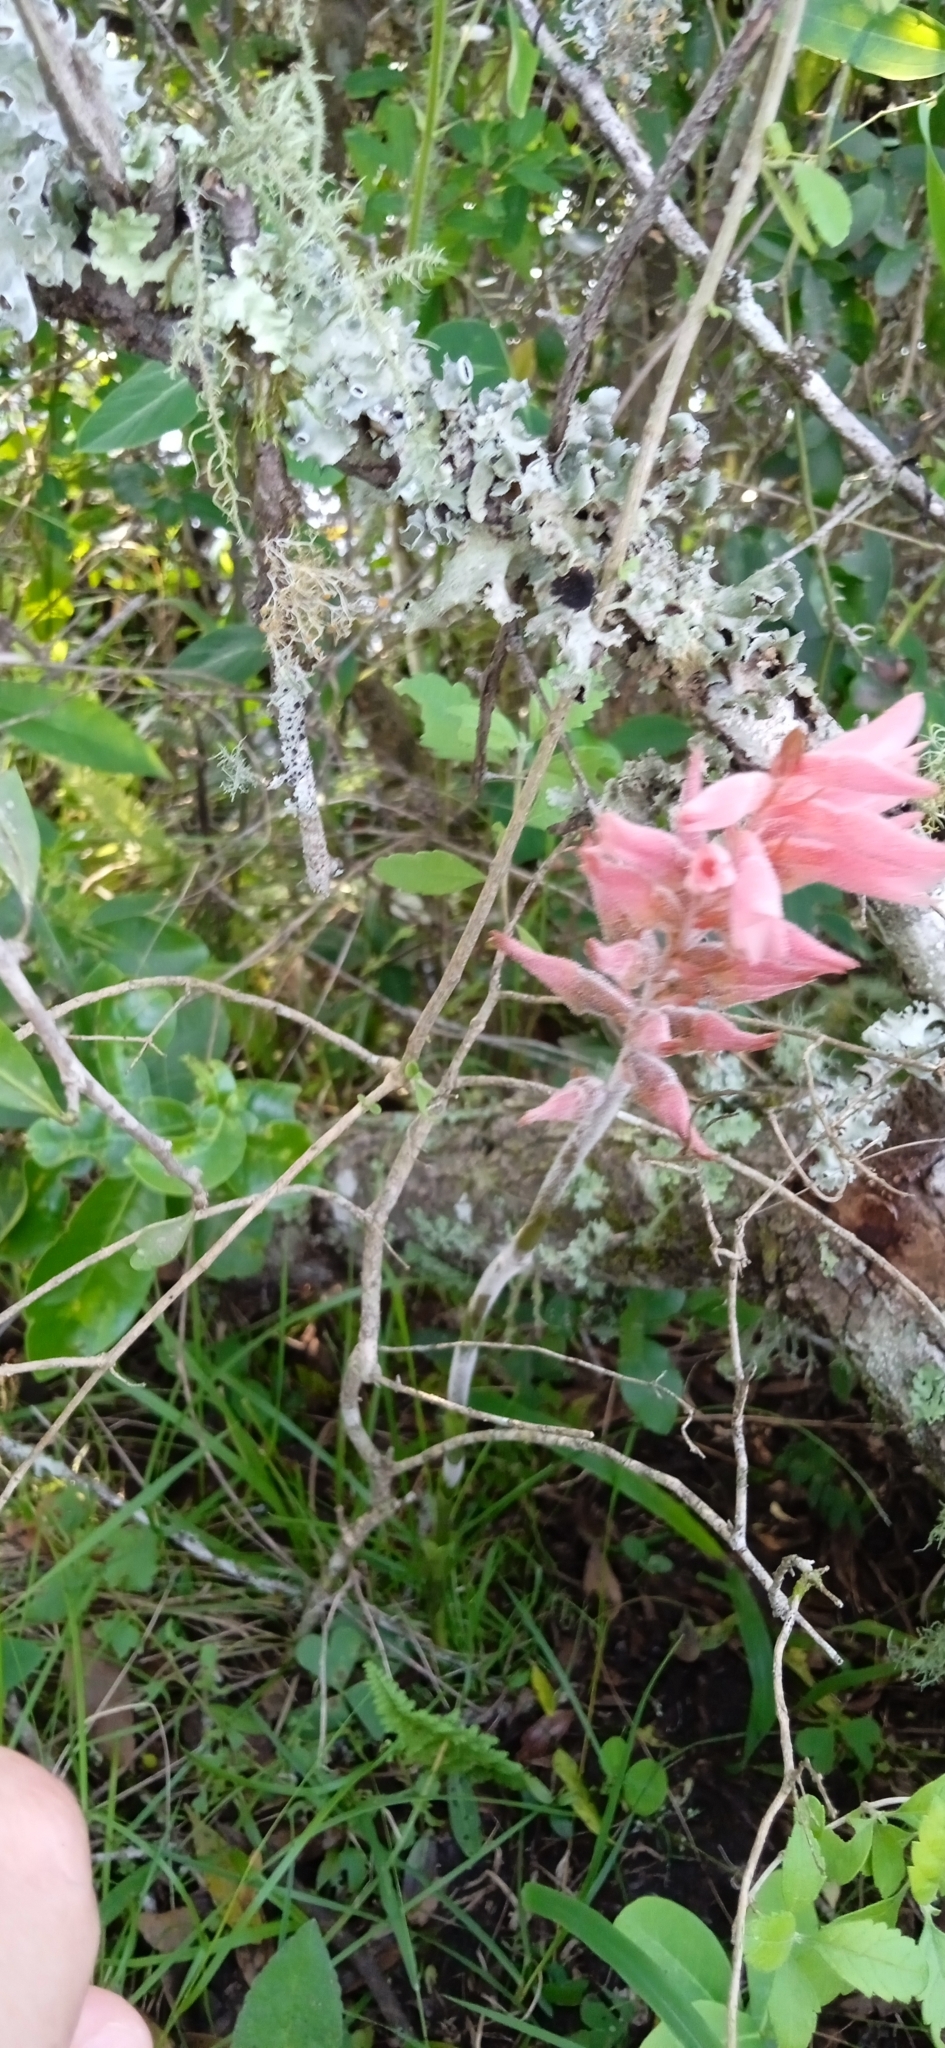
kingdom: Plantae
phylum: Tracheophyta
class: Liliopsida
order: Asparagales
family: Orchidaceae
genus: Sacoila
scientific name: Sacoila lanceolata
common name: Leafless beaked ladiestresses
